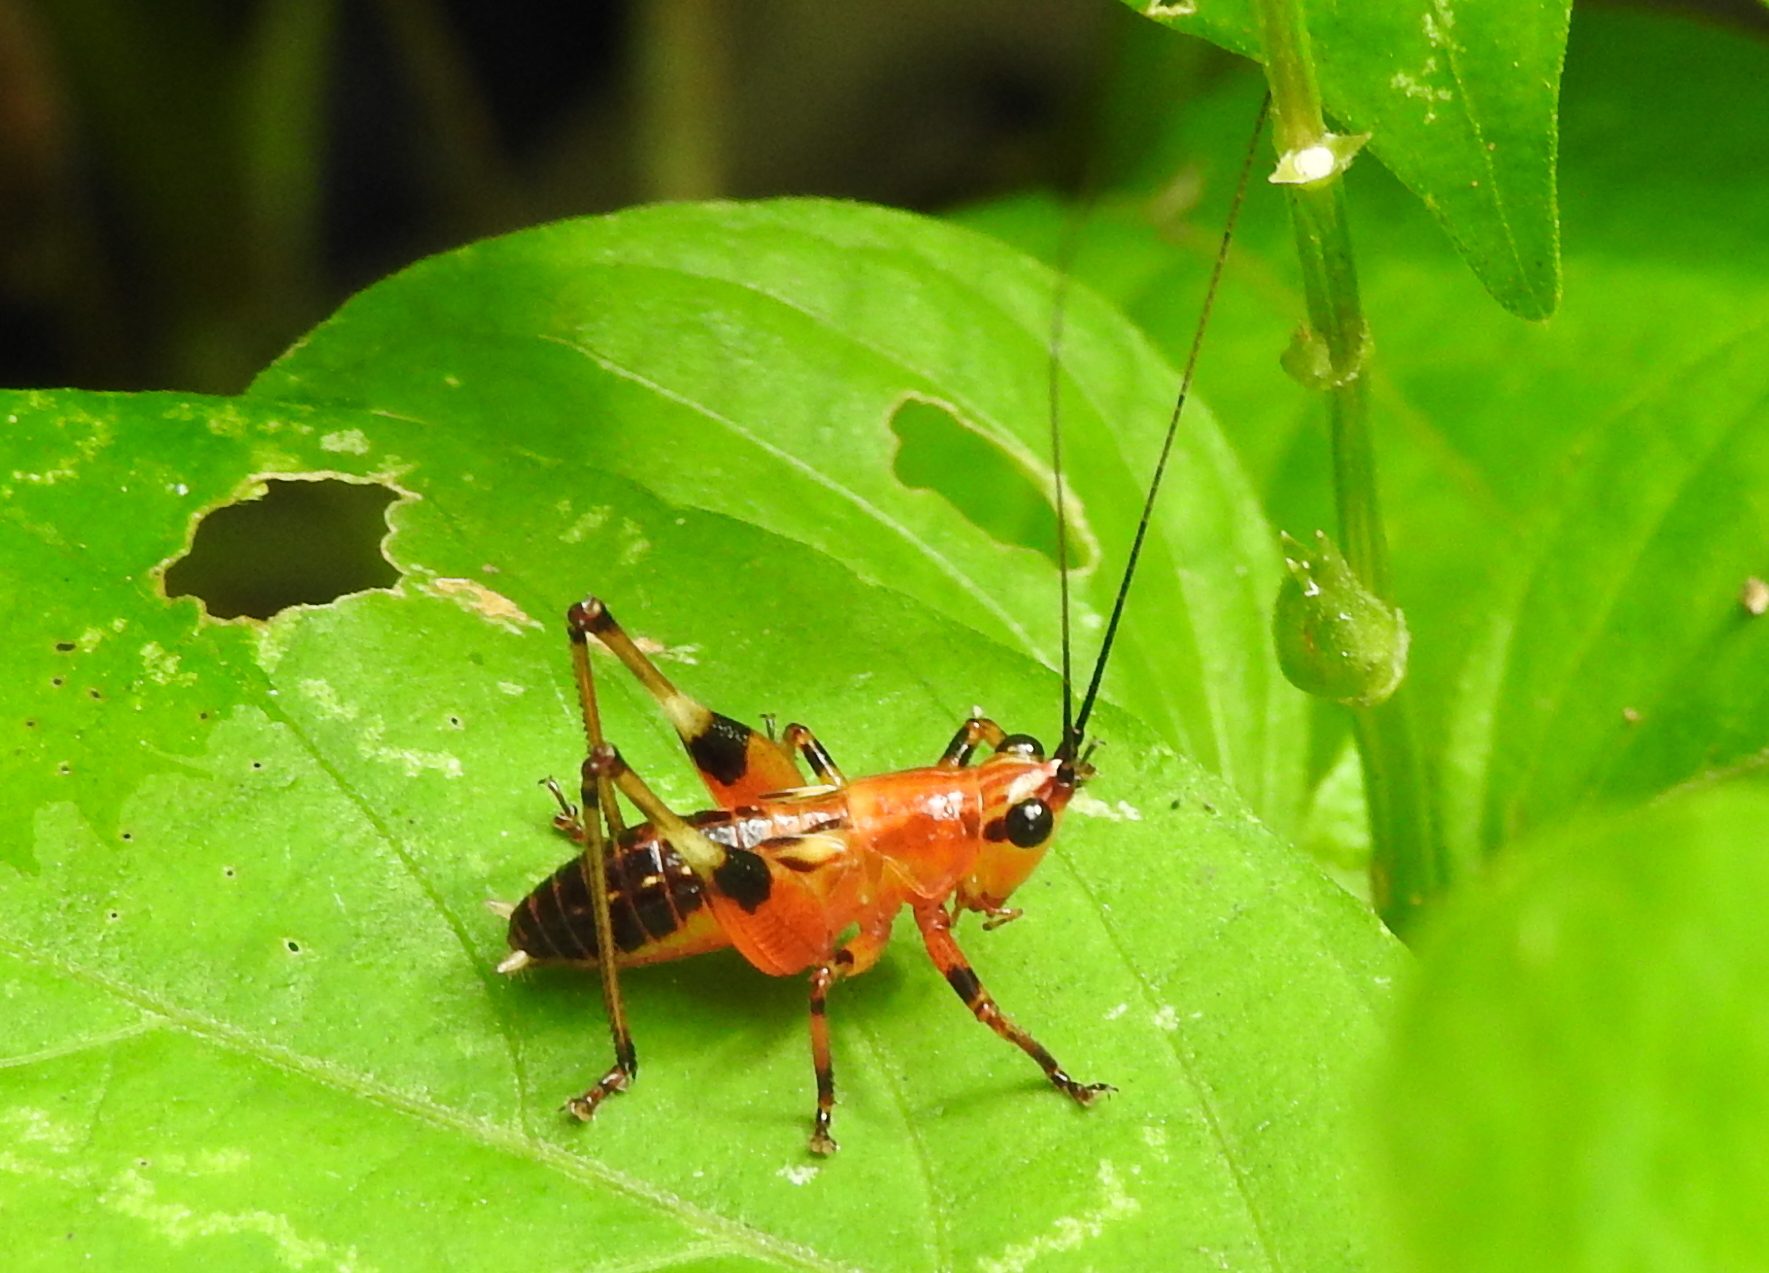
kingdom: Animalia
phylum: Arthropoda
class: Insecta
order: Orthoptera
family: Tettigoniidae
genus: Conocephalus
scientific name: Conocephalus melaenus
